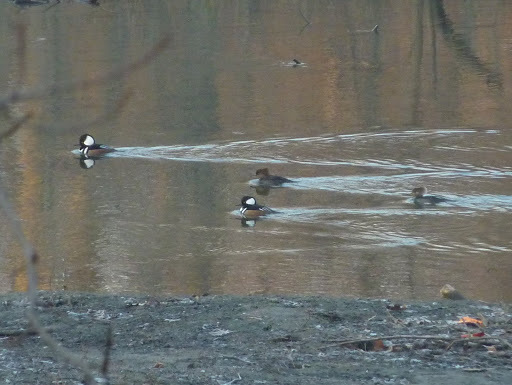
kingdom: Animalia
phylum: Chordata
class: Aves
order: Anseriformes
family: Anatidae
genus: Lophodytes
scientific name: Lophodytes cucullatus
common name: Hooded merganser
